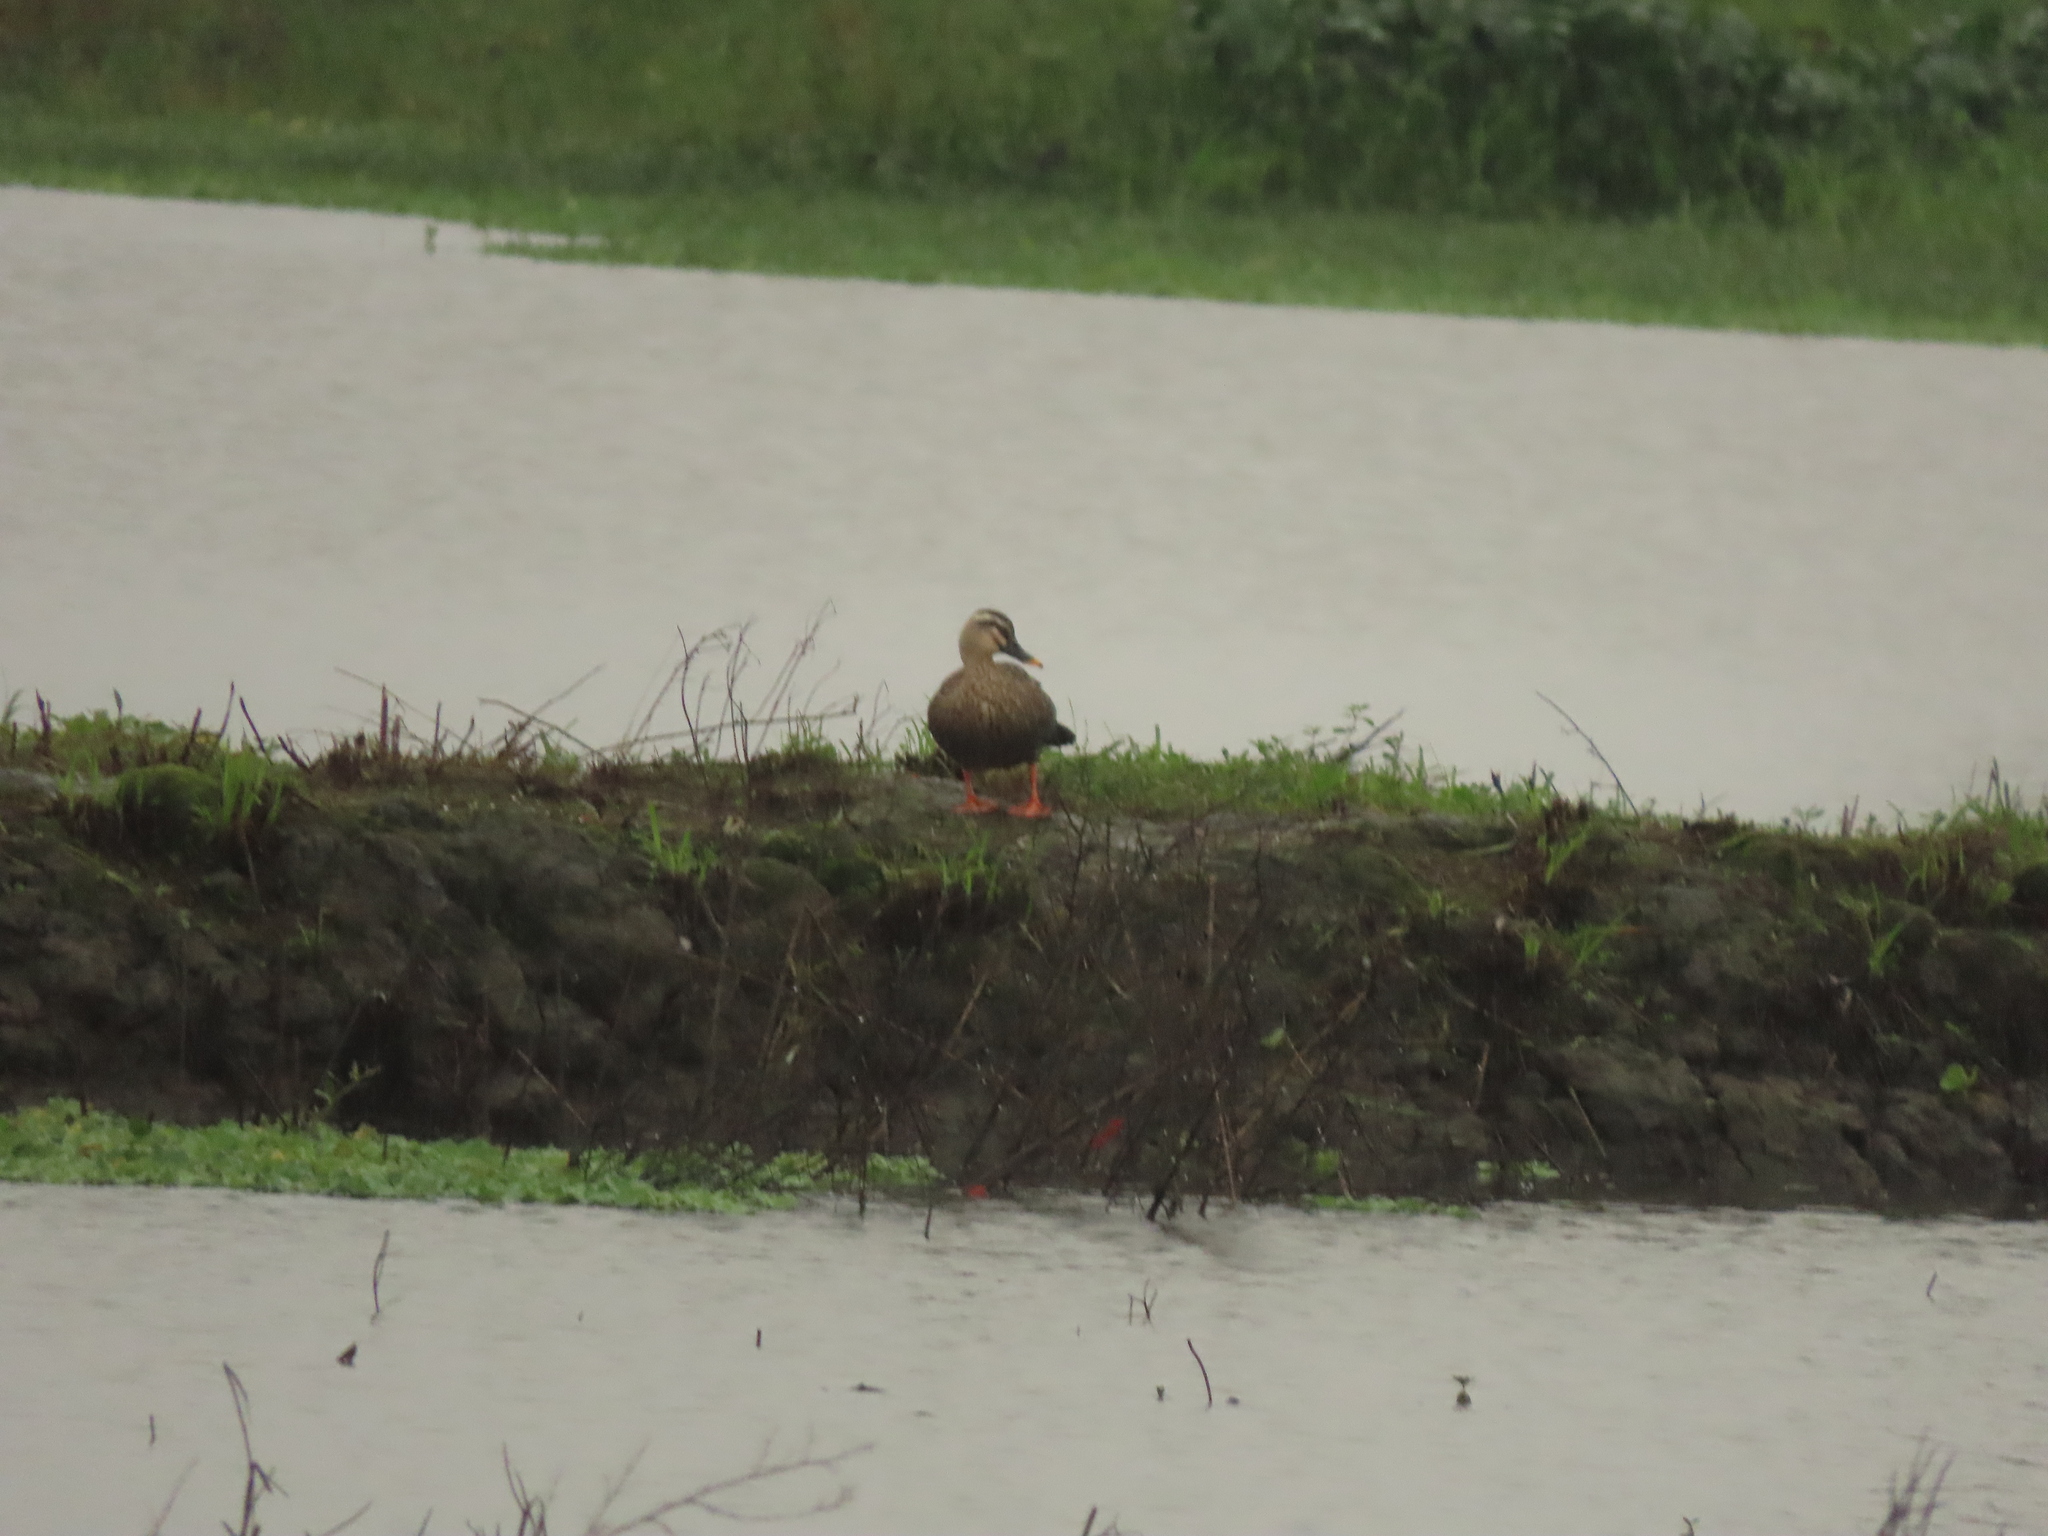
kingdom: Animalia
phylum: Chordata
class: Aves
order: Anseriformes
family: Anatidae
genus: Anas
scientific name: Anas zonorhyncha
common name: Eastern spot-billed duck
